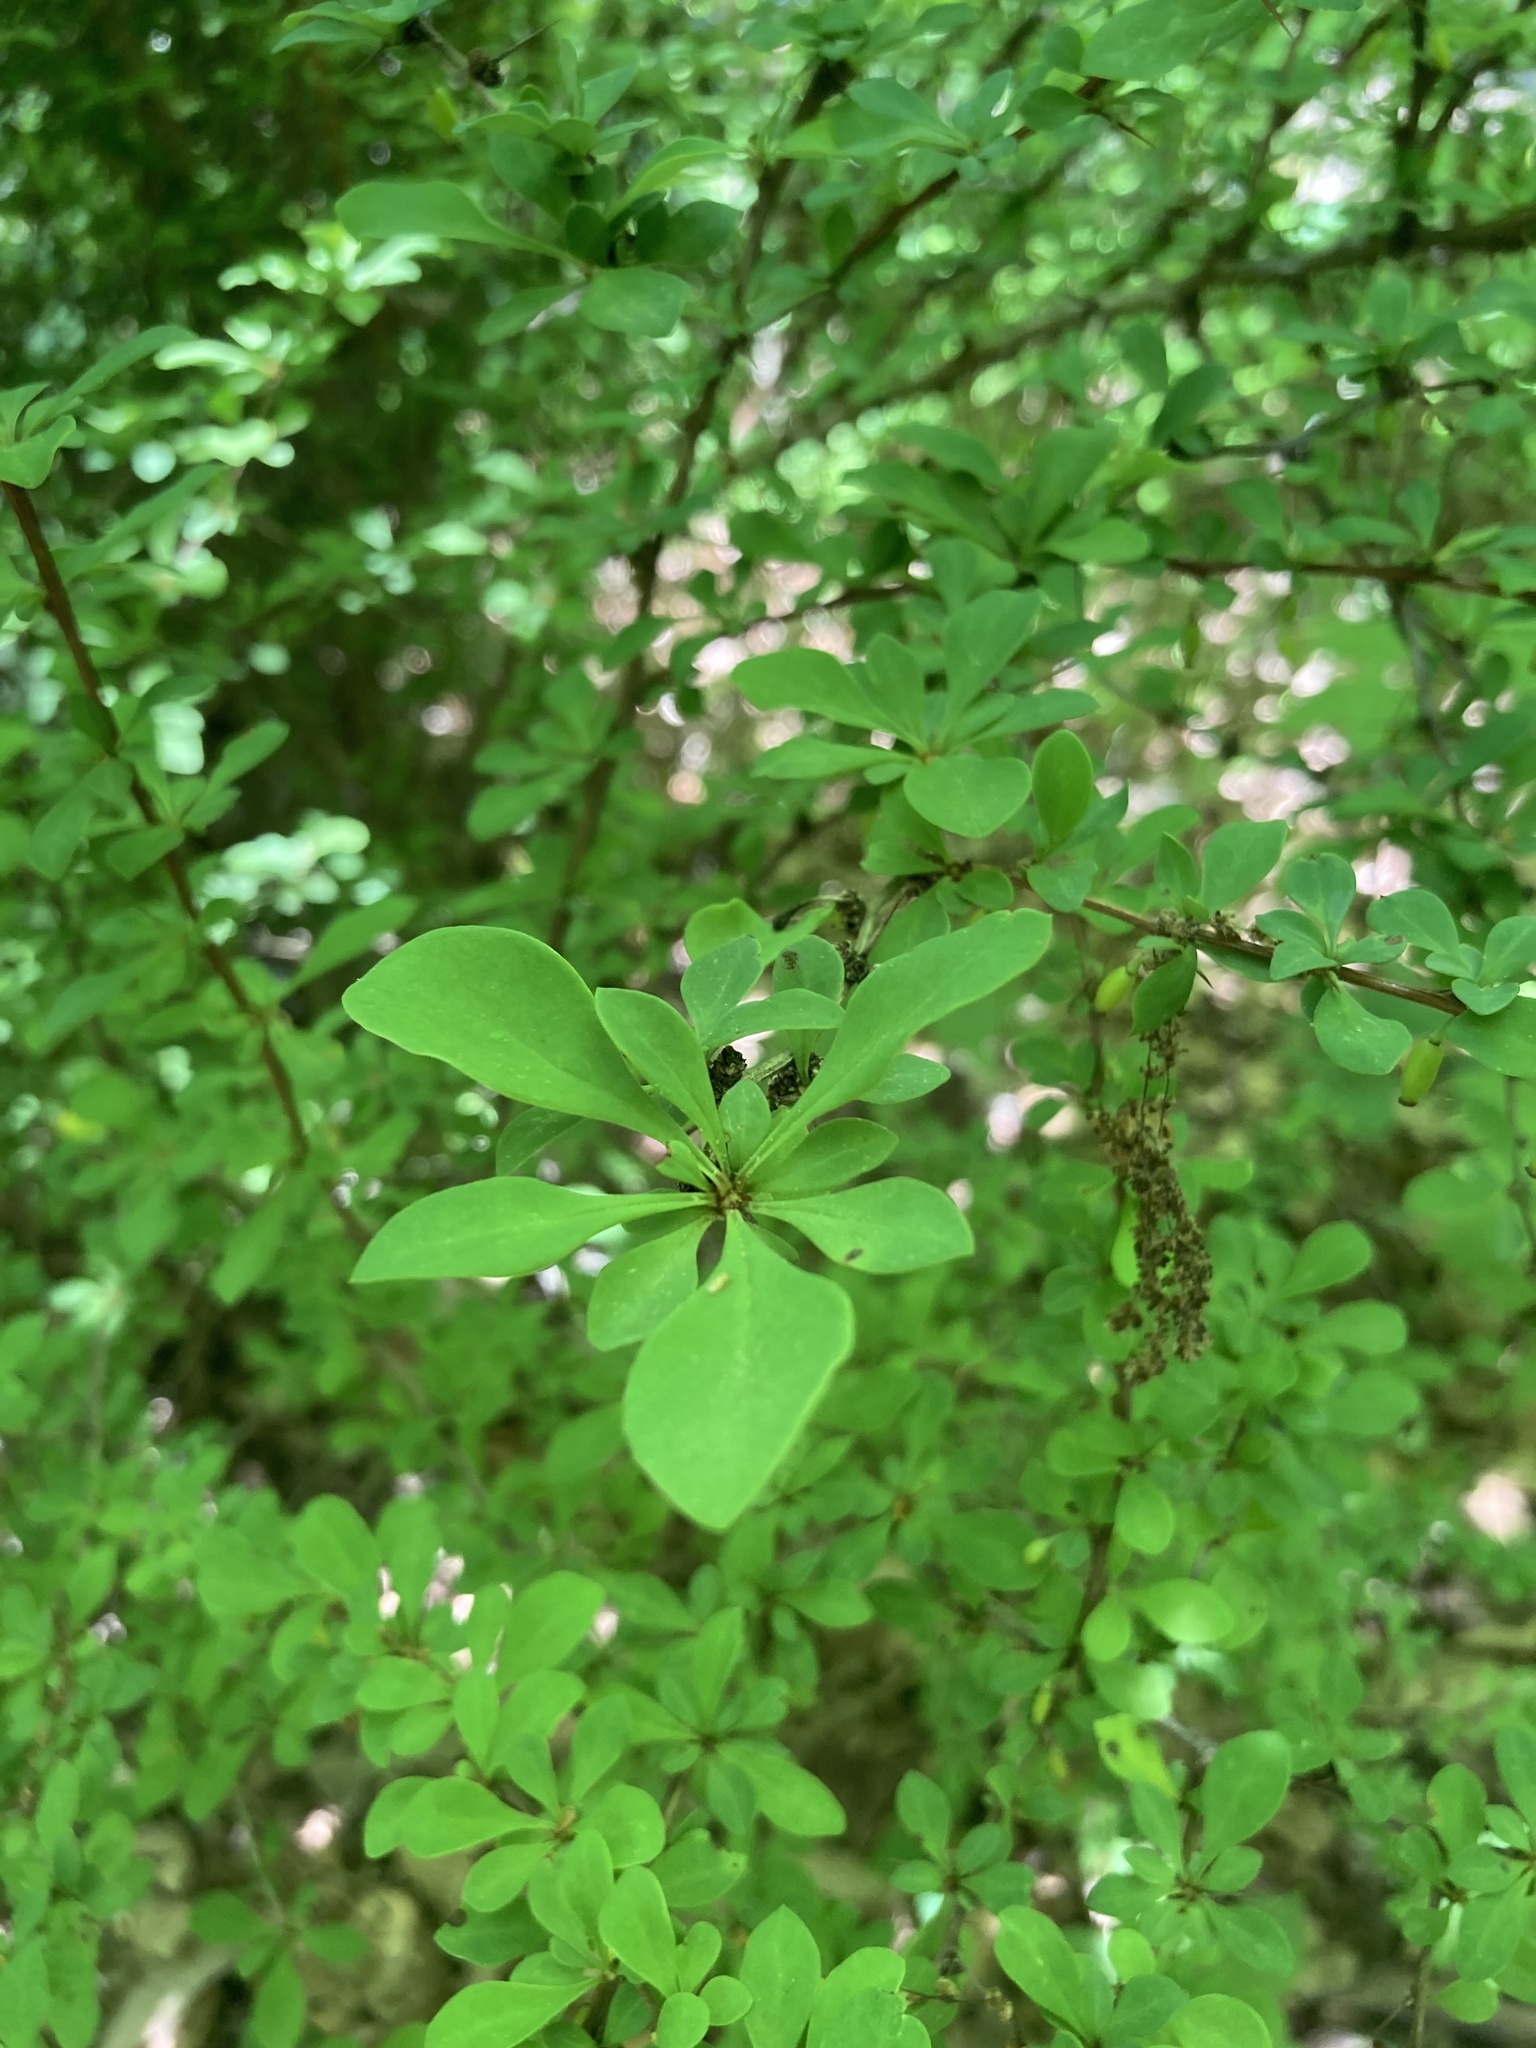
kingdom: Plantae
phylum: Tracheophyta
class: Magnoliopsida
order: Ranunculales
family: Berberidaceae
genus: Berberis
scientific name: Berberis thunbergii
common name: Japanese barberry
